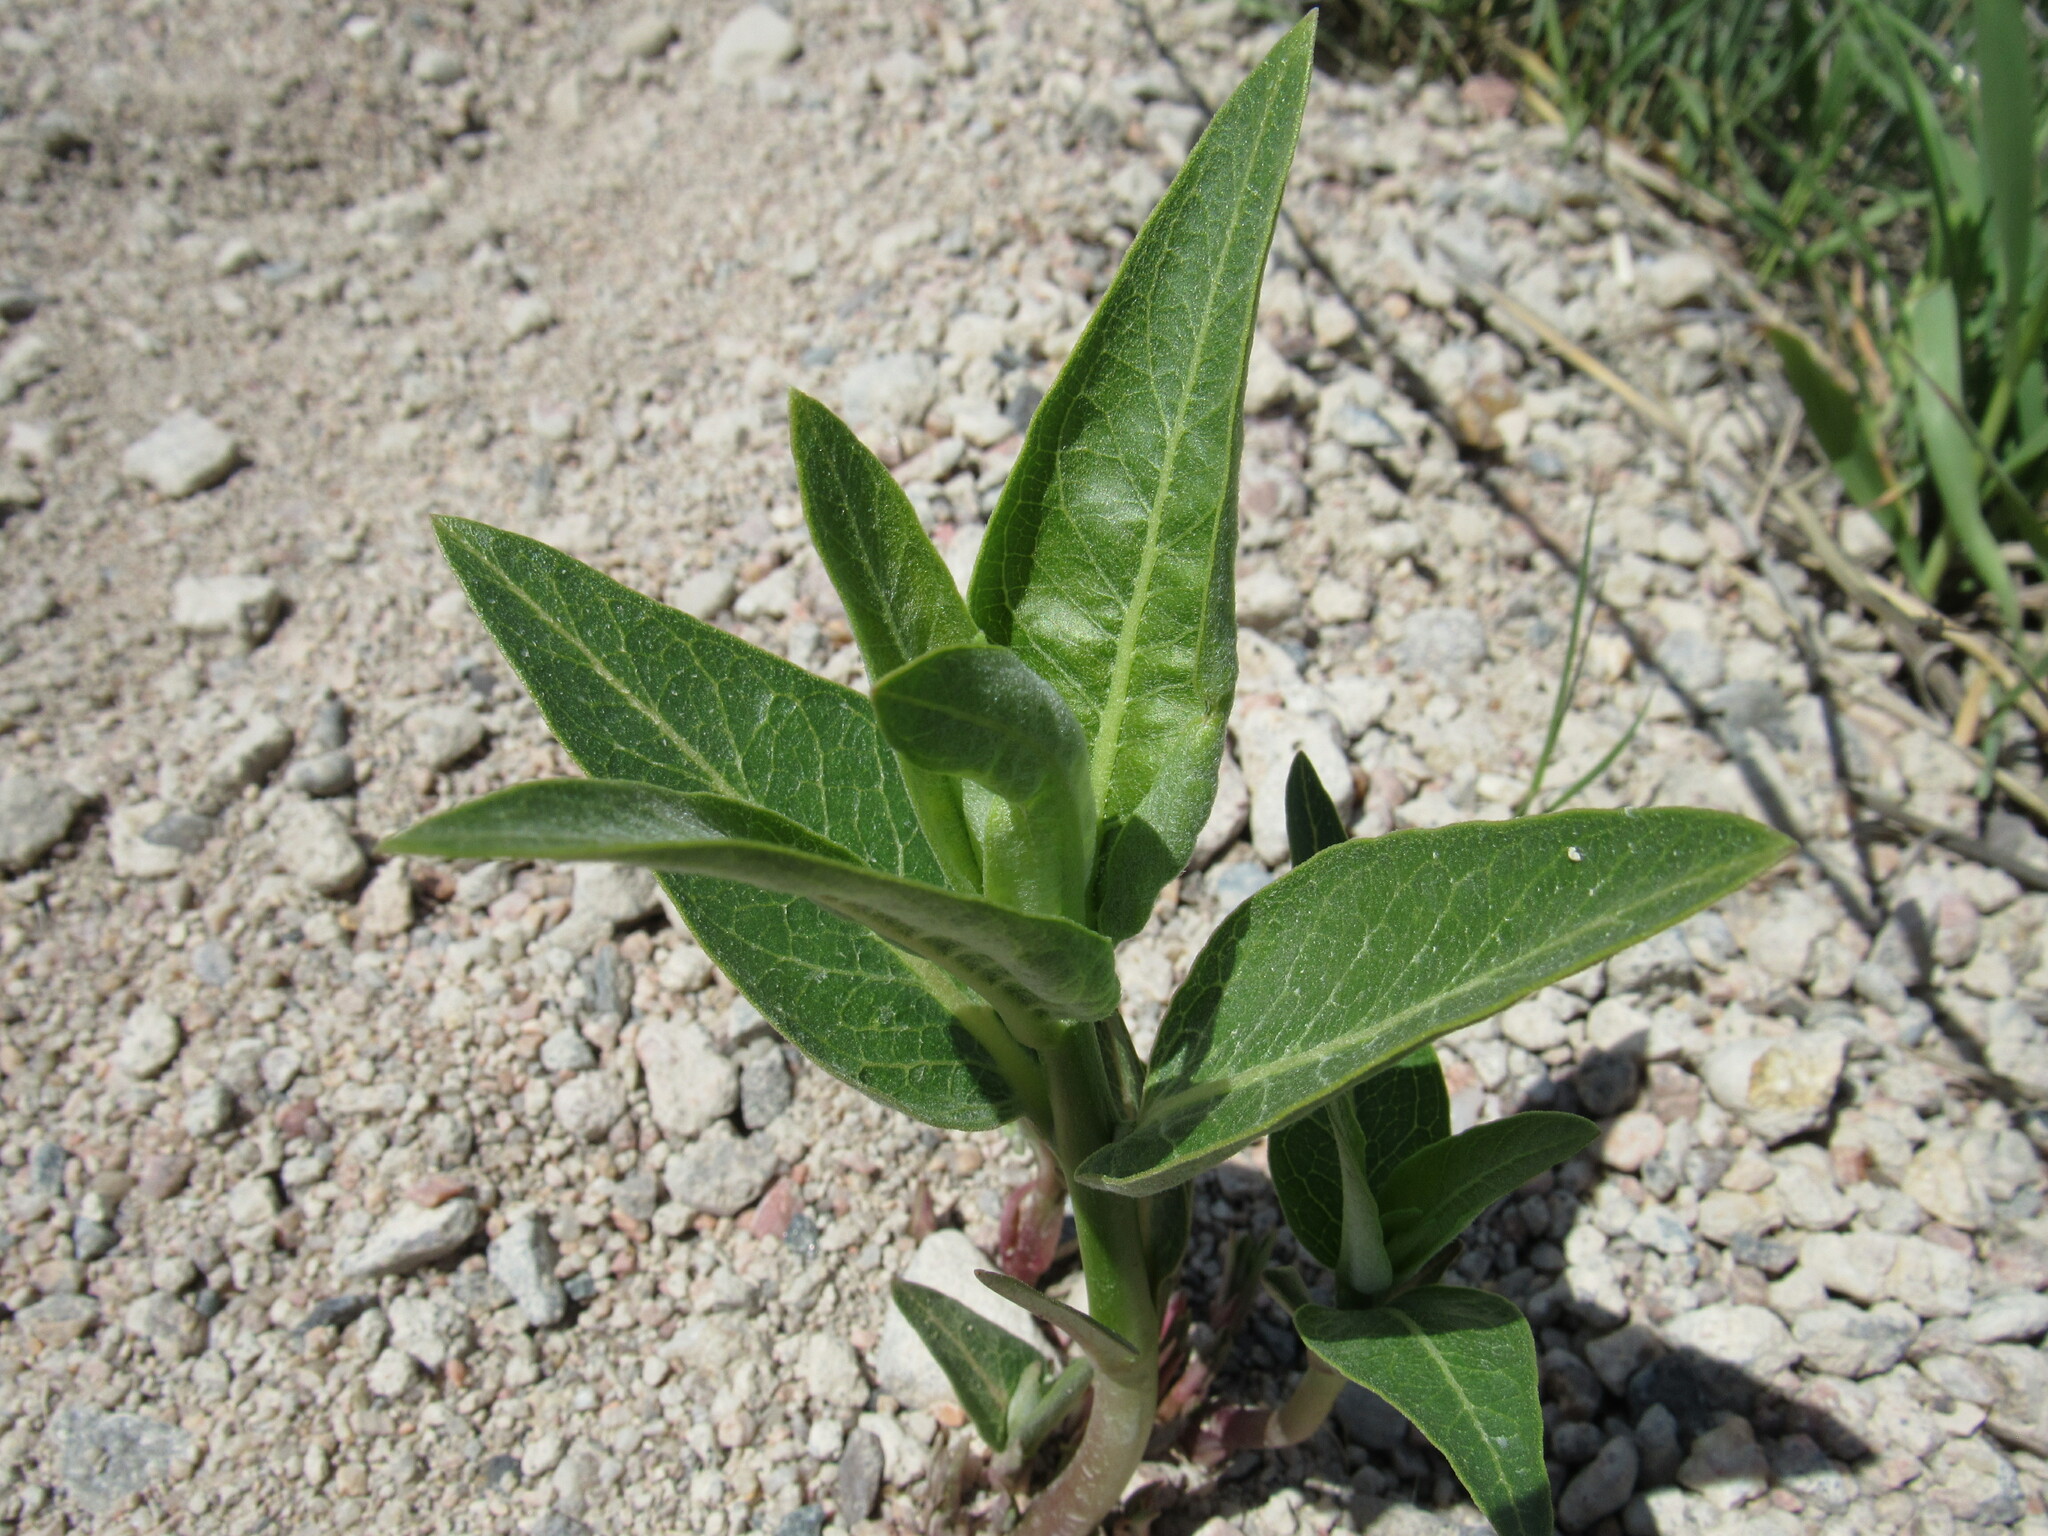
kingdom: Plantae
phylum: Tracheophyta
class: Magnoliopsida
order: Gentianales
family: Apocynaceae
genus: Asclepias
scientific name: Asclepias speciosa
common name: Showy milkweed
